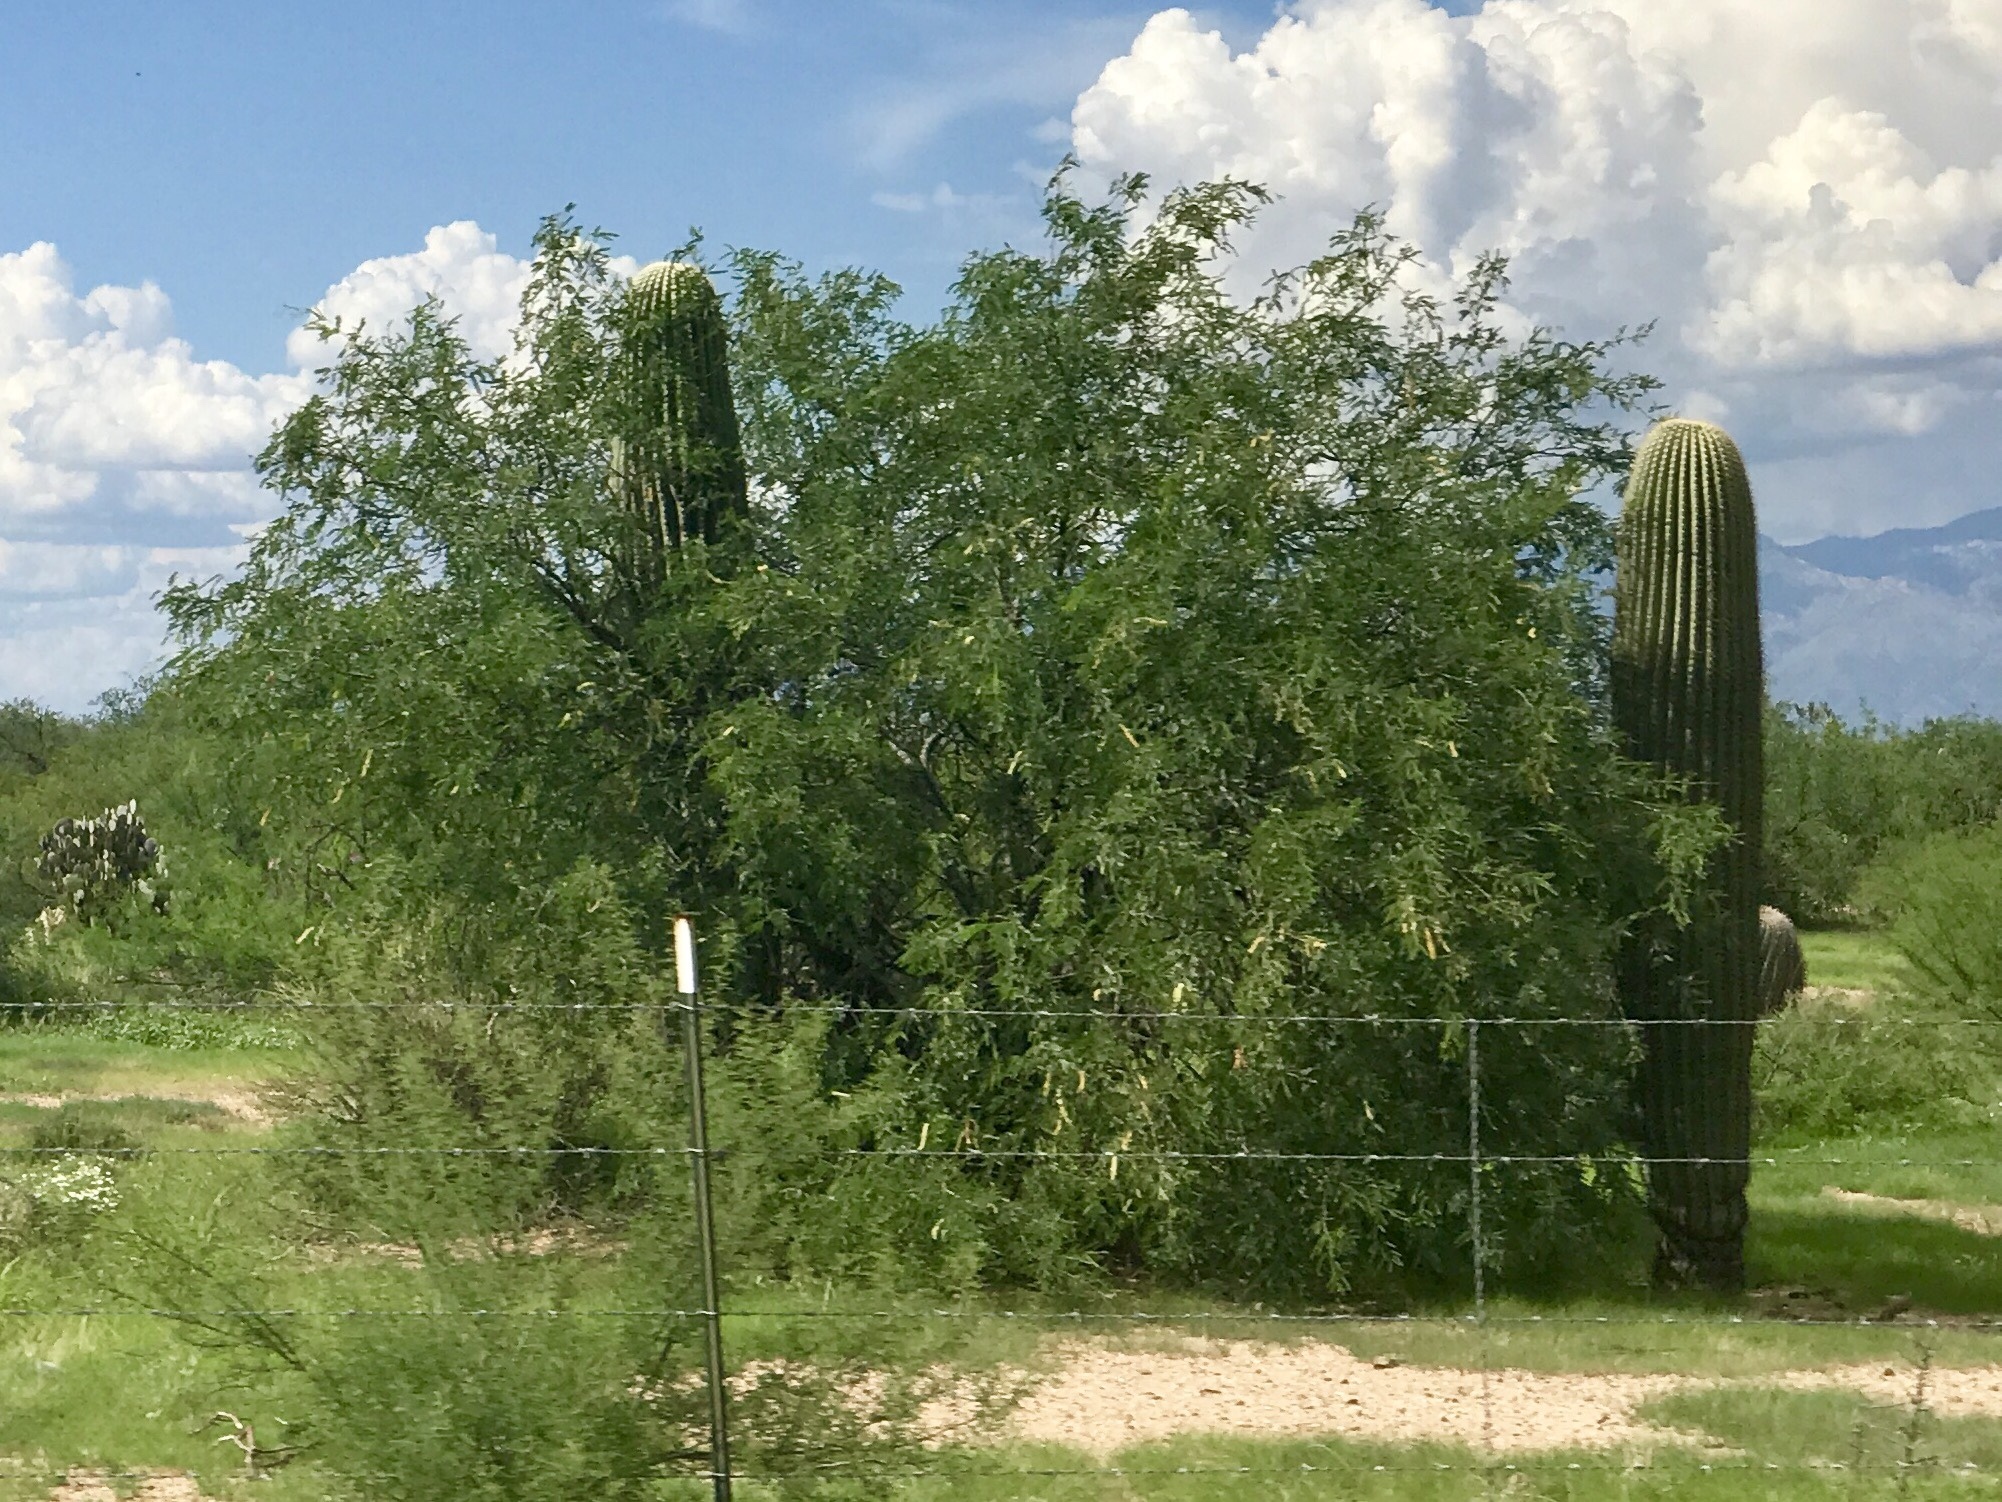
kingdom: Plantae
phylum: Tracheophyta
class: Magnoliopsida
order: Caryophyllales
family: Cactaceae
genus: Carnegiea
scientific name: Carnegiea gigantea
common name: Saguaro
